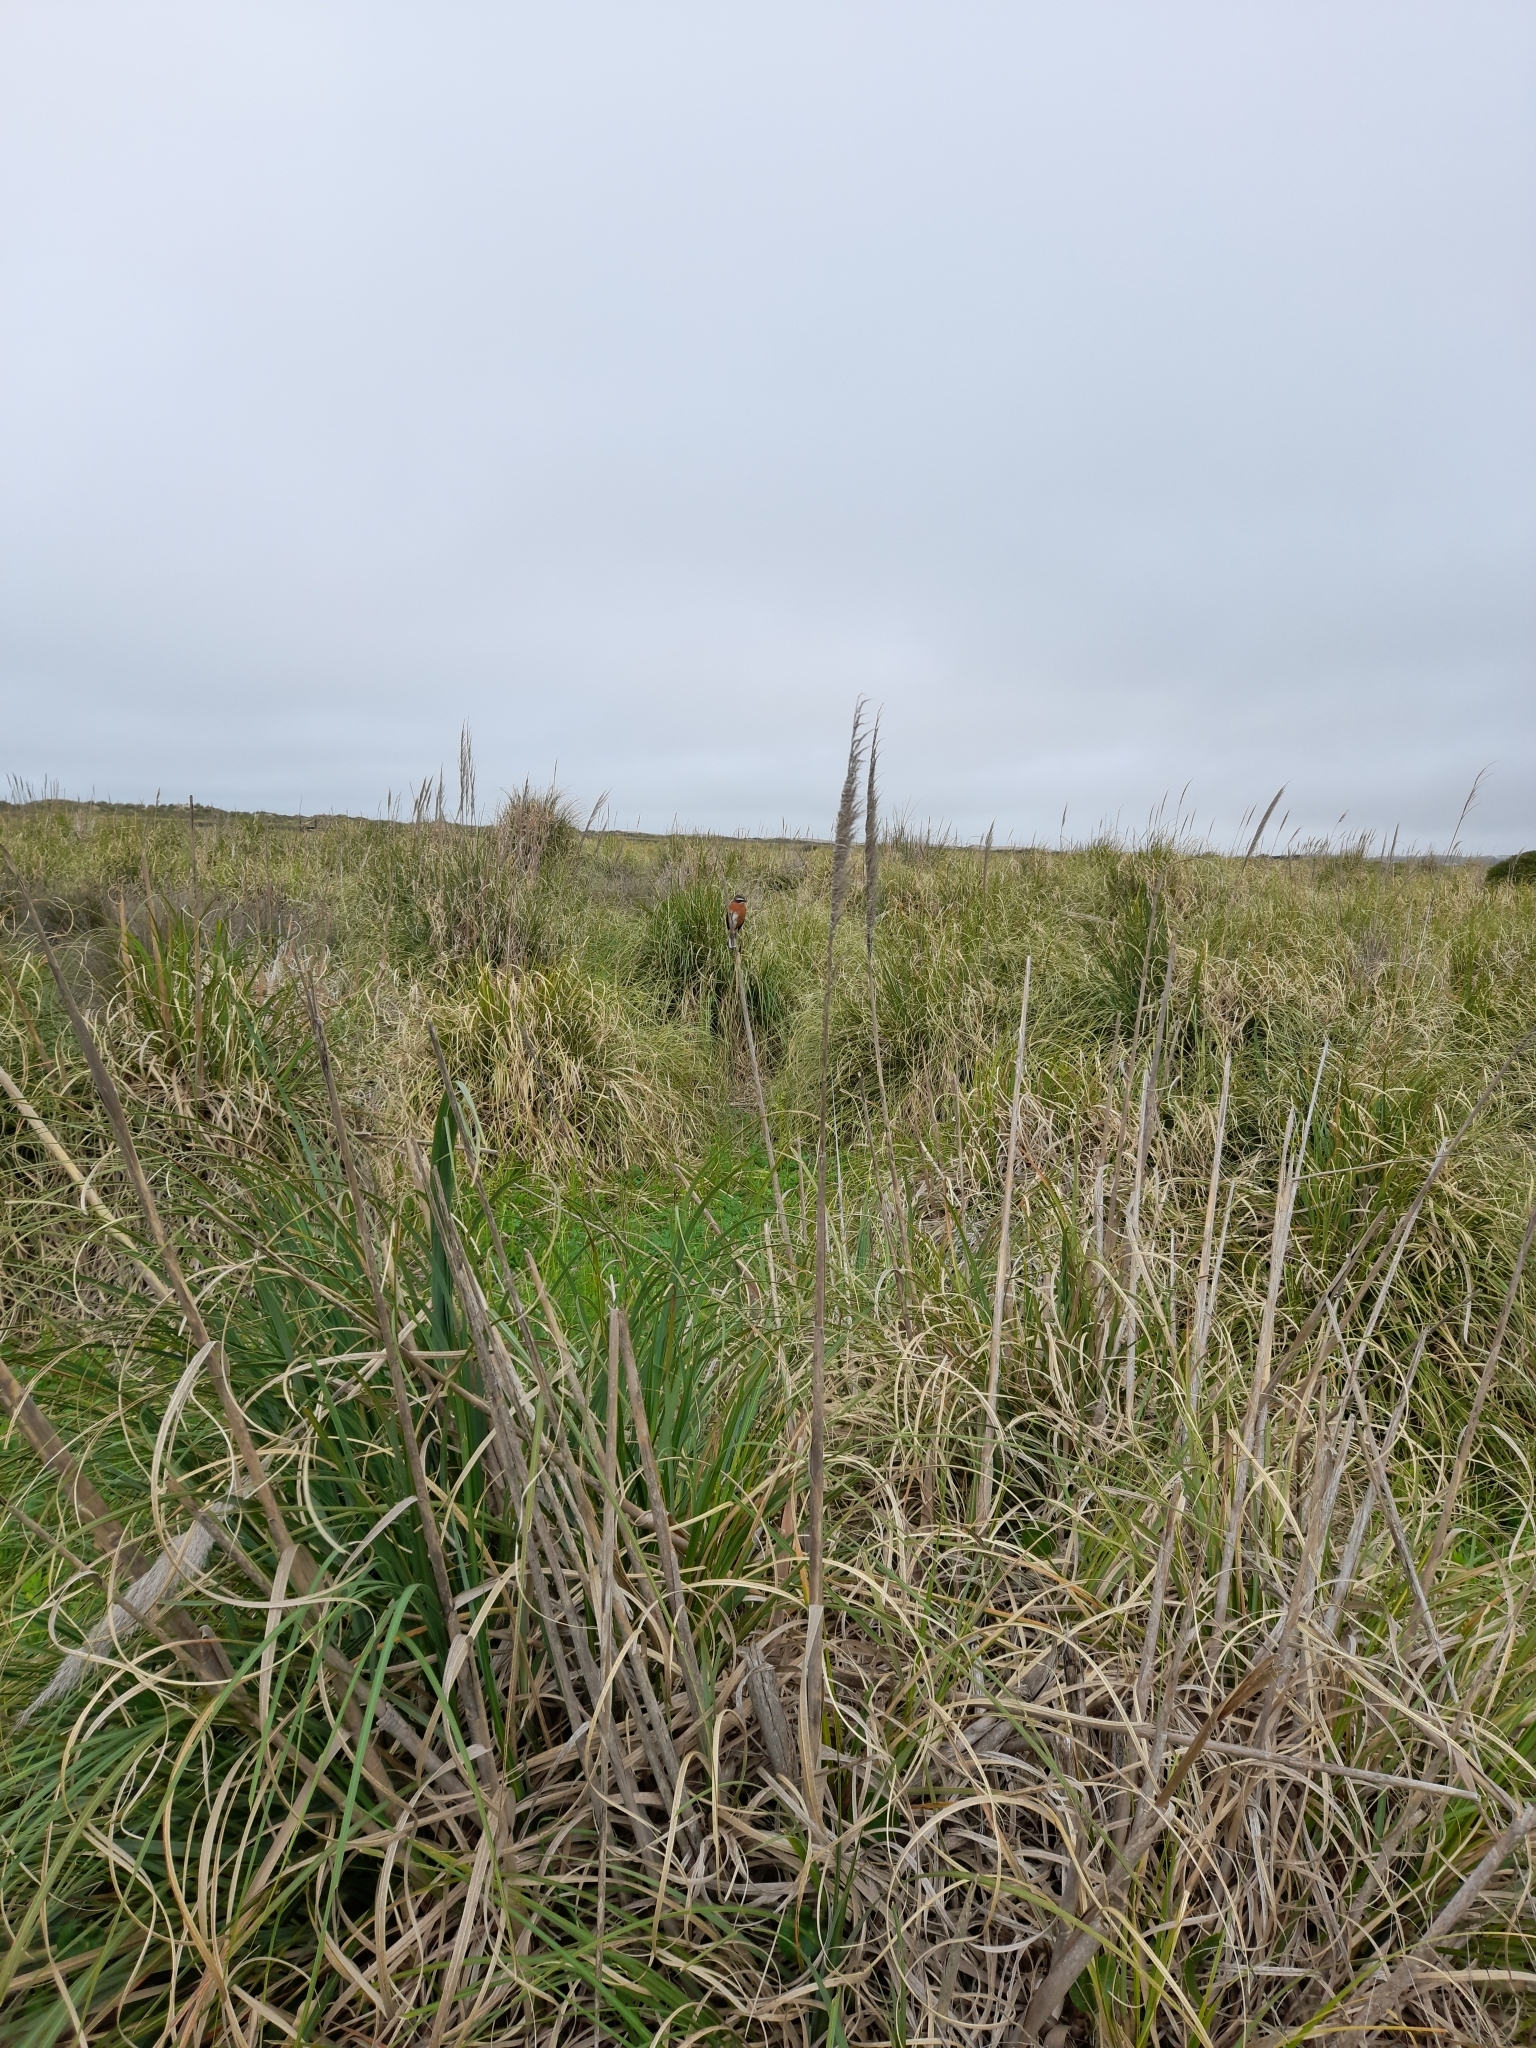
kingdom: Animalia
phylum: Chordata
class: Aves
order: Passeriformes
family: Thraupidae
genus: Poospiza
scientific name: Poospiza nigrorufa
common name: Black-and-rufous warbling finch
